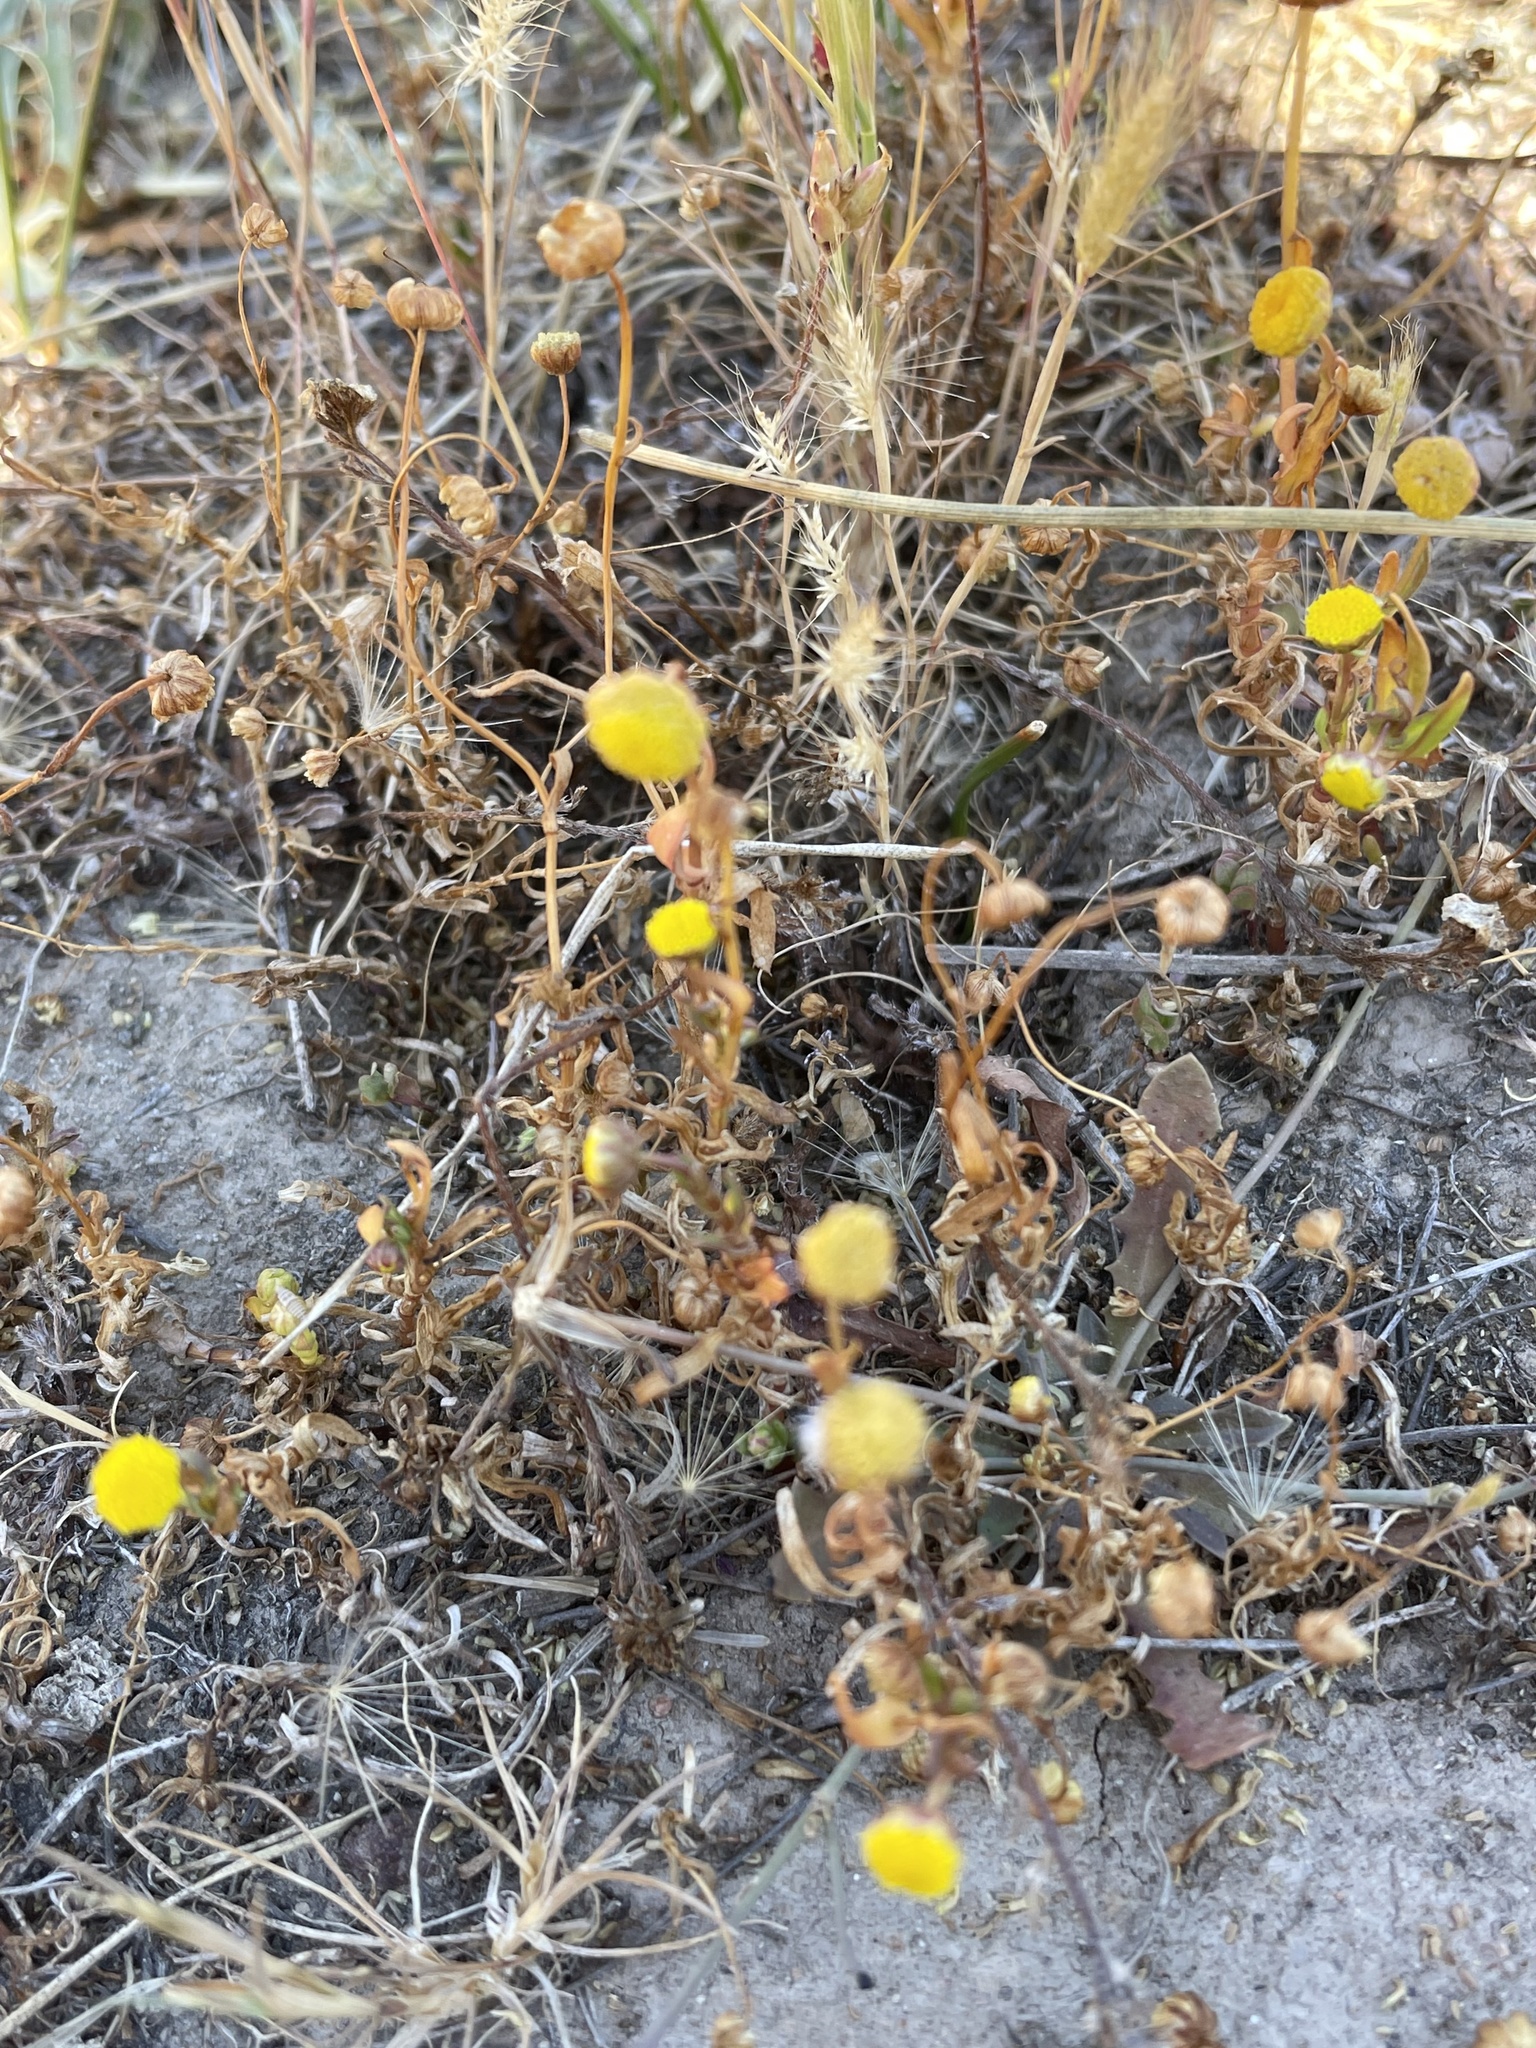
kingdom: Plantae
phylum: Tracheophyta
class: Magnoliopsida
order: Asterales
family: Asteraceae
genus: Cotula
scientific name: Cotula coronopifolia
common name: Buttonweed
